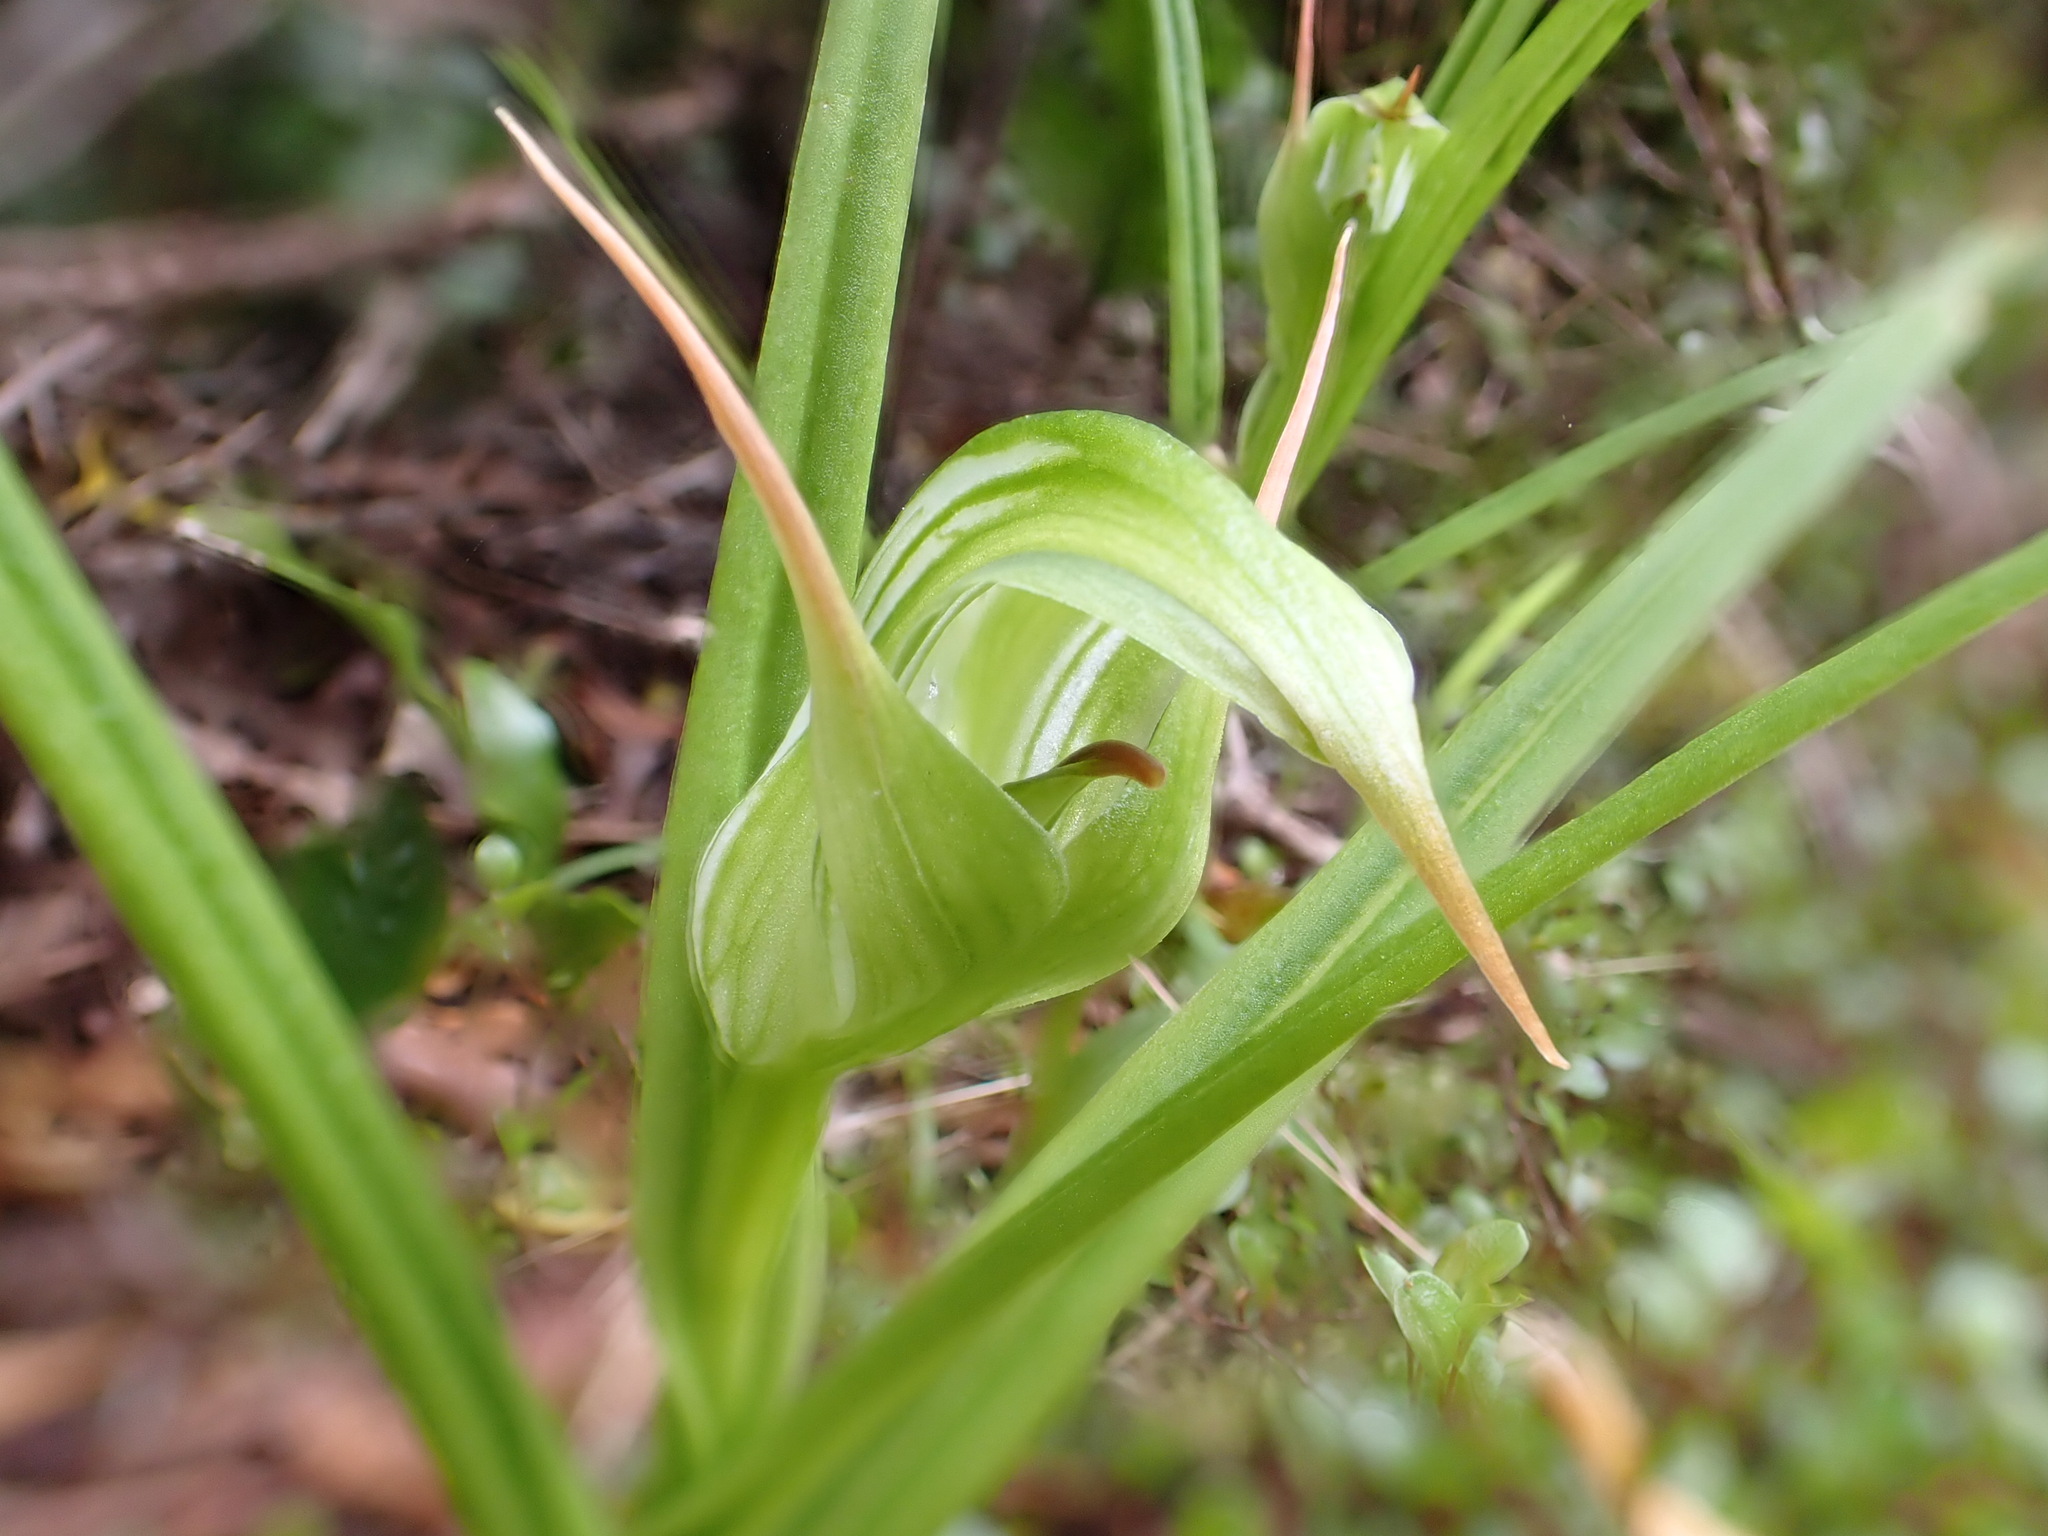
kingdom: Plantae
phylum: Tracheophyta
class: Liliopsida
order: Asparagales
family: Orchidaceae
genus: Pterostylis
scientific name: Pterostylis montana
